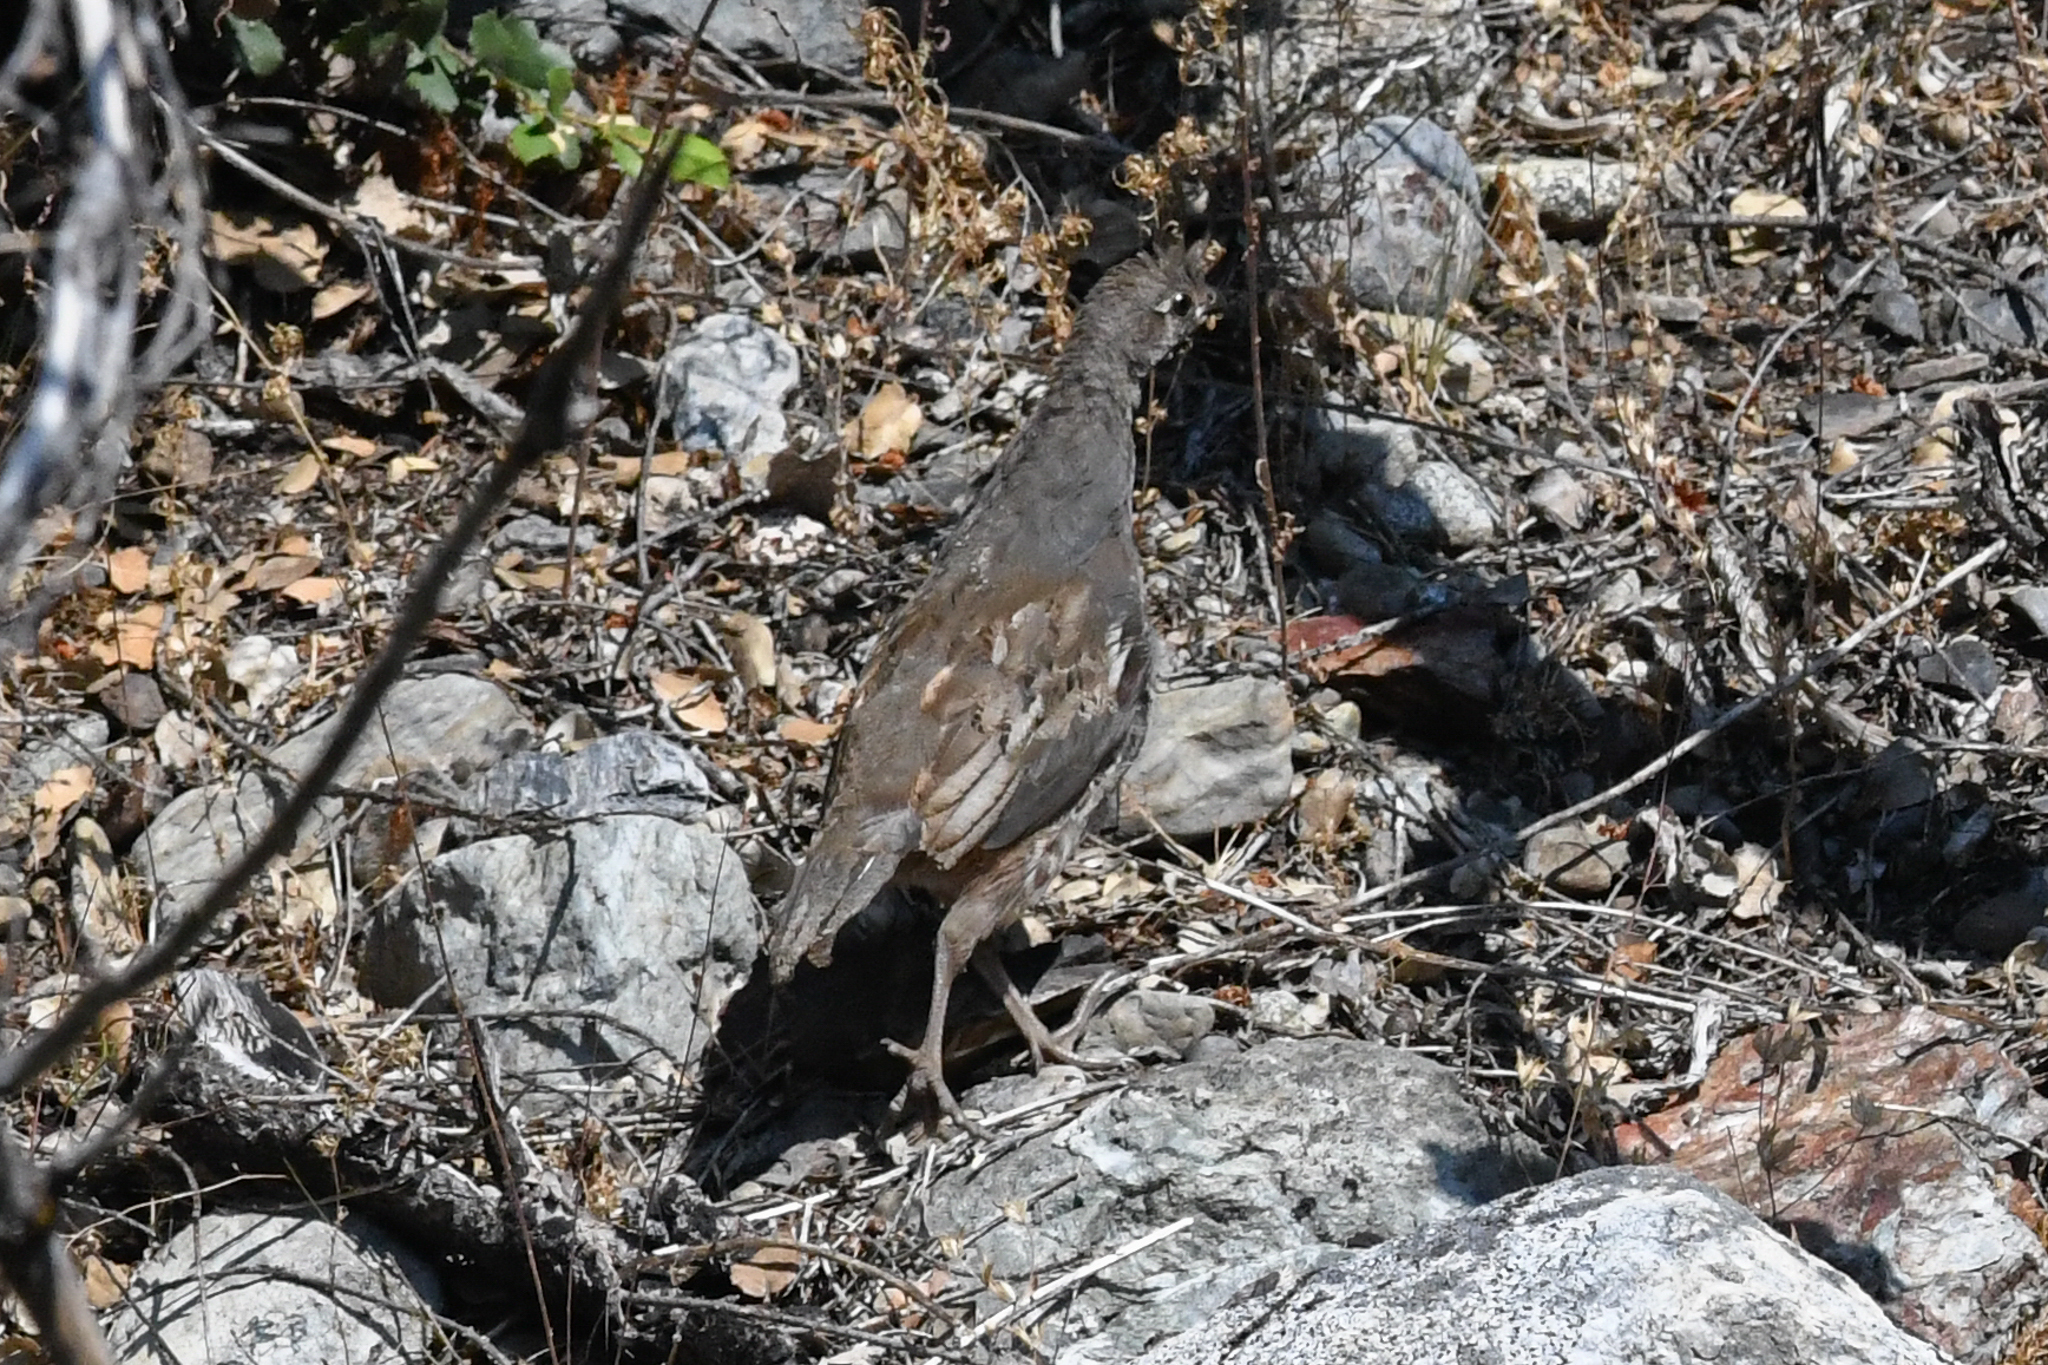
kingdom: Animalia
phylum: Chordata
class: Aves
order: Galliformes
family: Odontophoridae
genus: Oreortyx
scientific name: Oreortyx pictus
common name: Mountain quail
